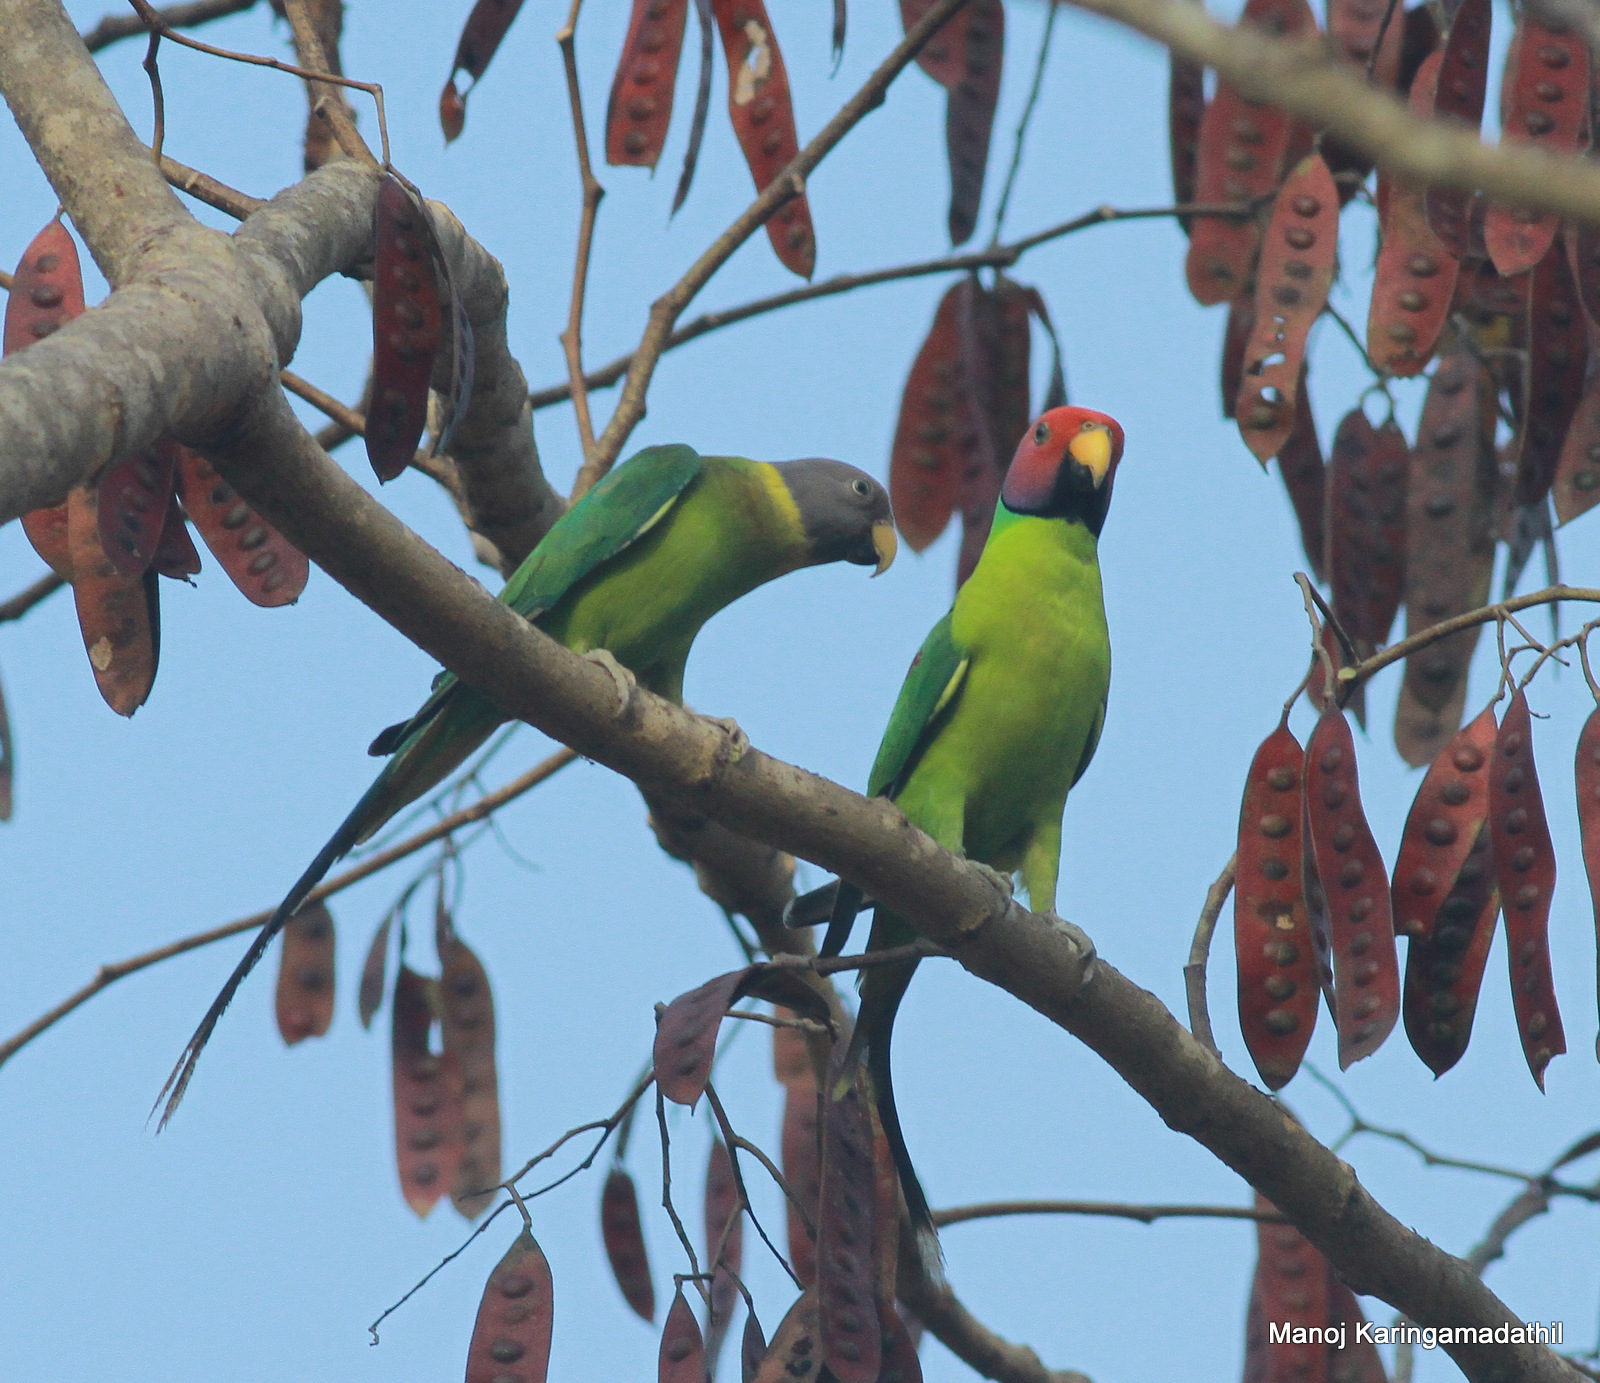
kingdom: Animalia
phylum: Chordata
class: Aves
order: Psittaciformes
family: Psittacidae
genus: Psittacula
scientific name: Psittacula cyanocephala
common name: Plum-headed parakeet
